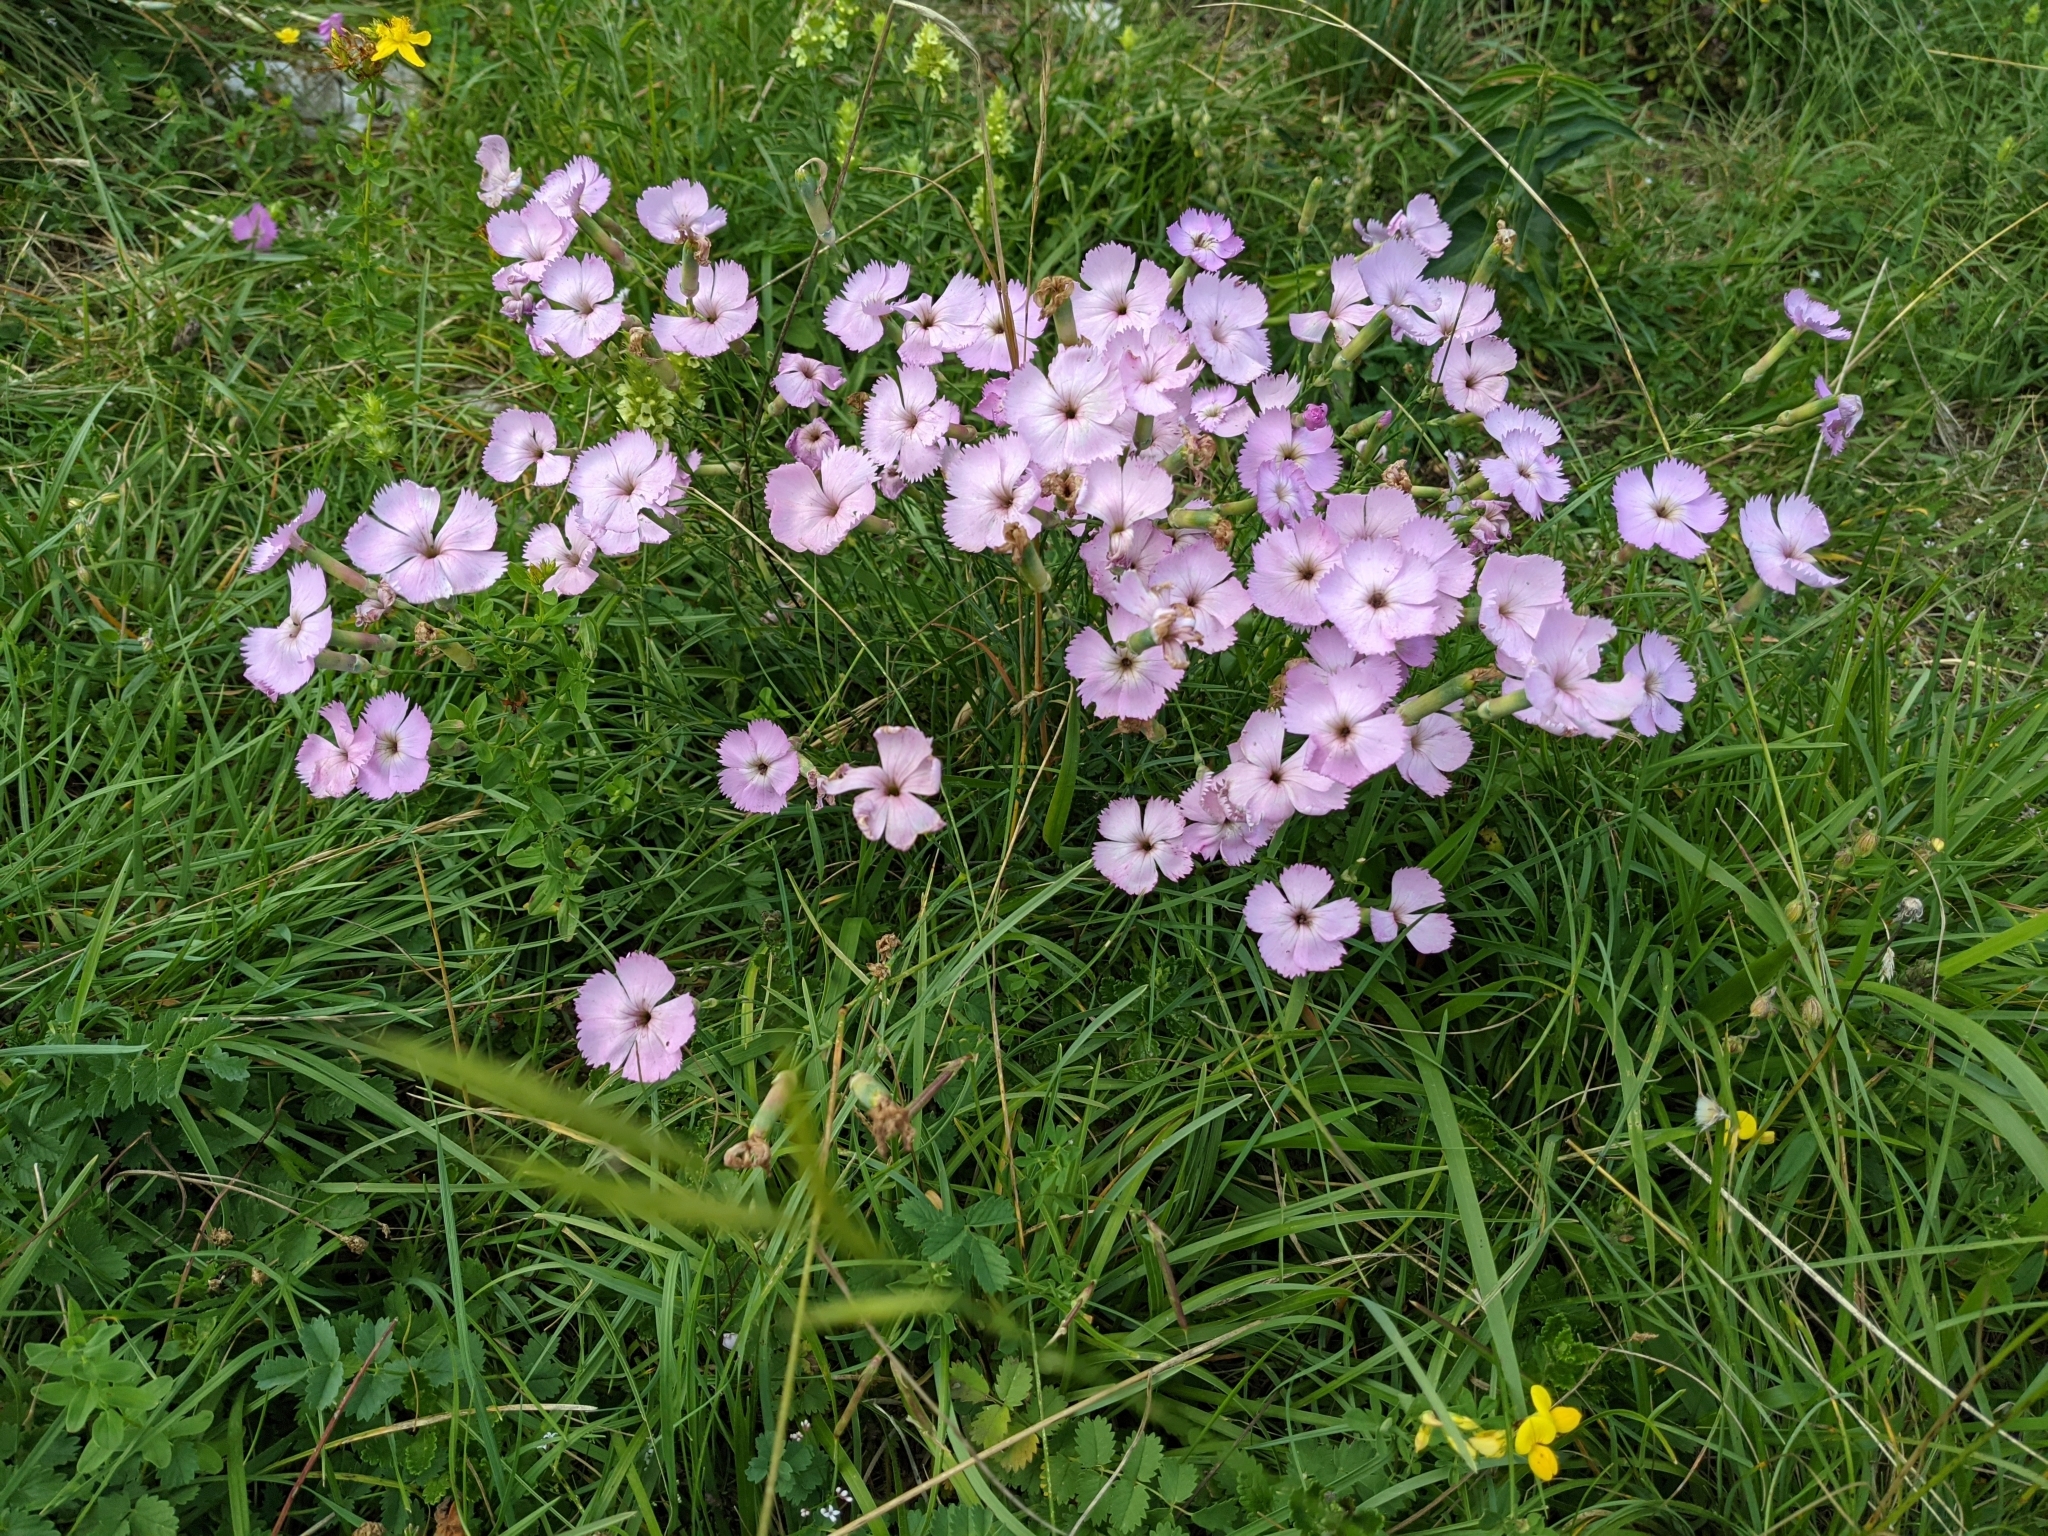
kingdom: Plantae
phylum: Tracheophyta
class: Magnoliopsida
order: Caryophyllales
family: Caryophyllaceae
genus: Dianthus
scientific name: Dianthus sylvestris
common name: Wood pink
